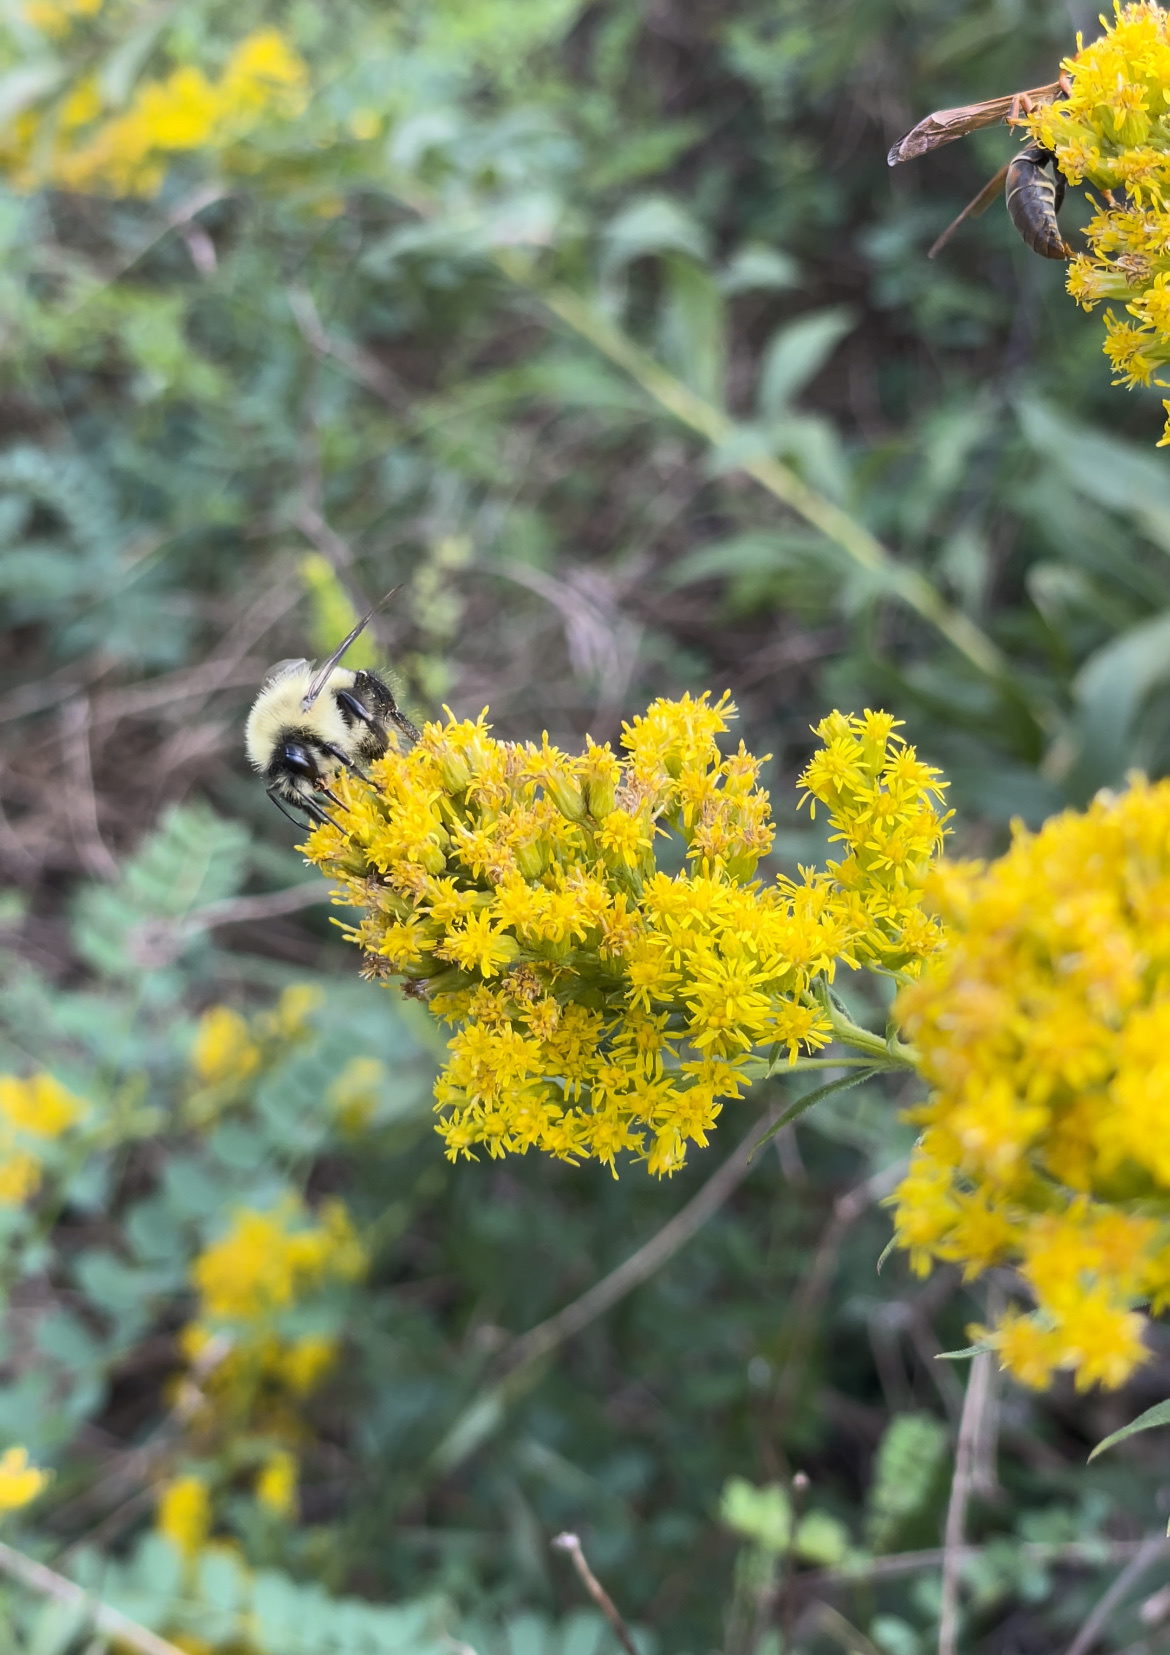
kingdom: Animalia
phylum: Arthropoda
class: Insecta
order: Hymenoptera
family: Apidae
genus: Bombus
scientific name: Bombus impatiens
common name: Common eastern bumble bee
